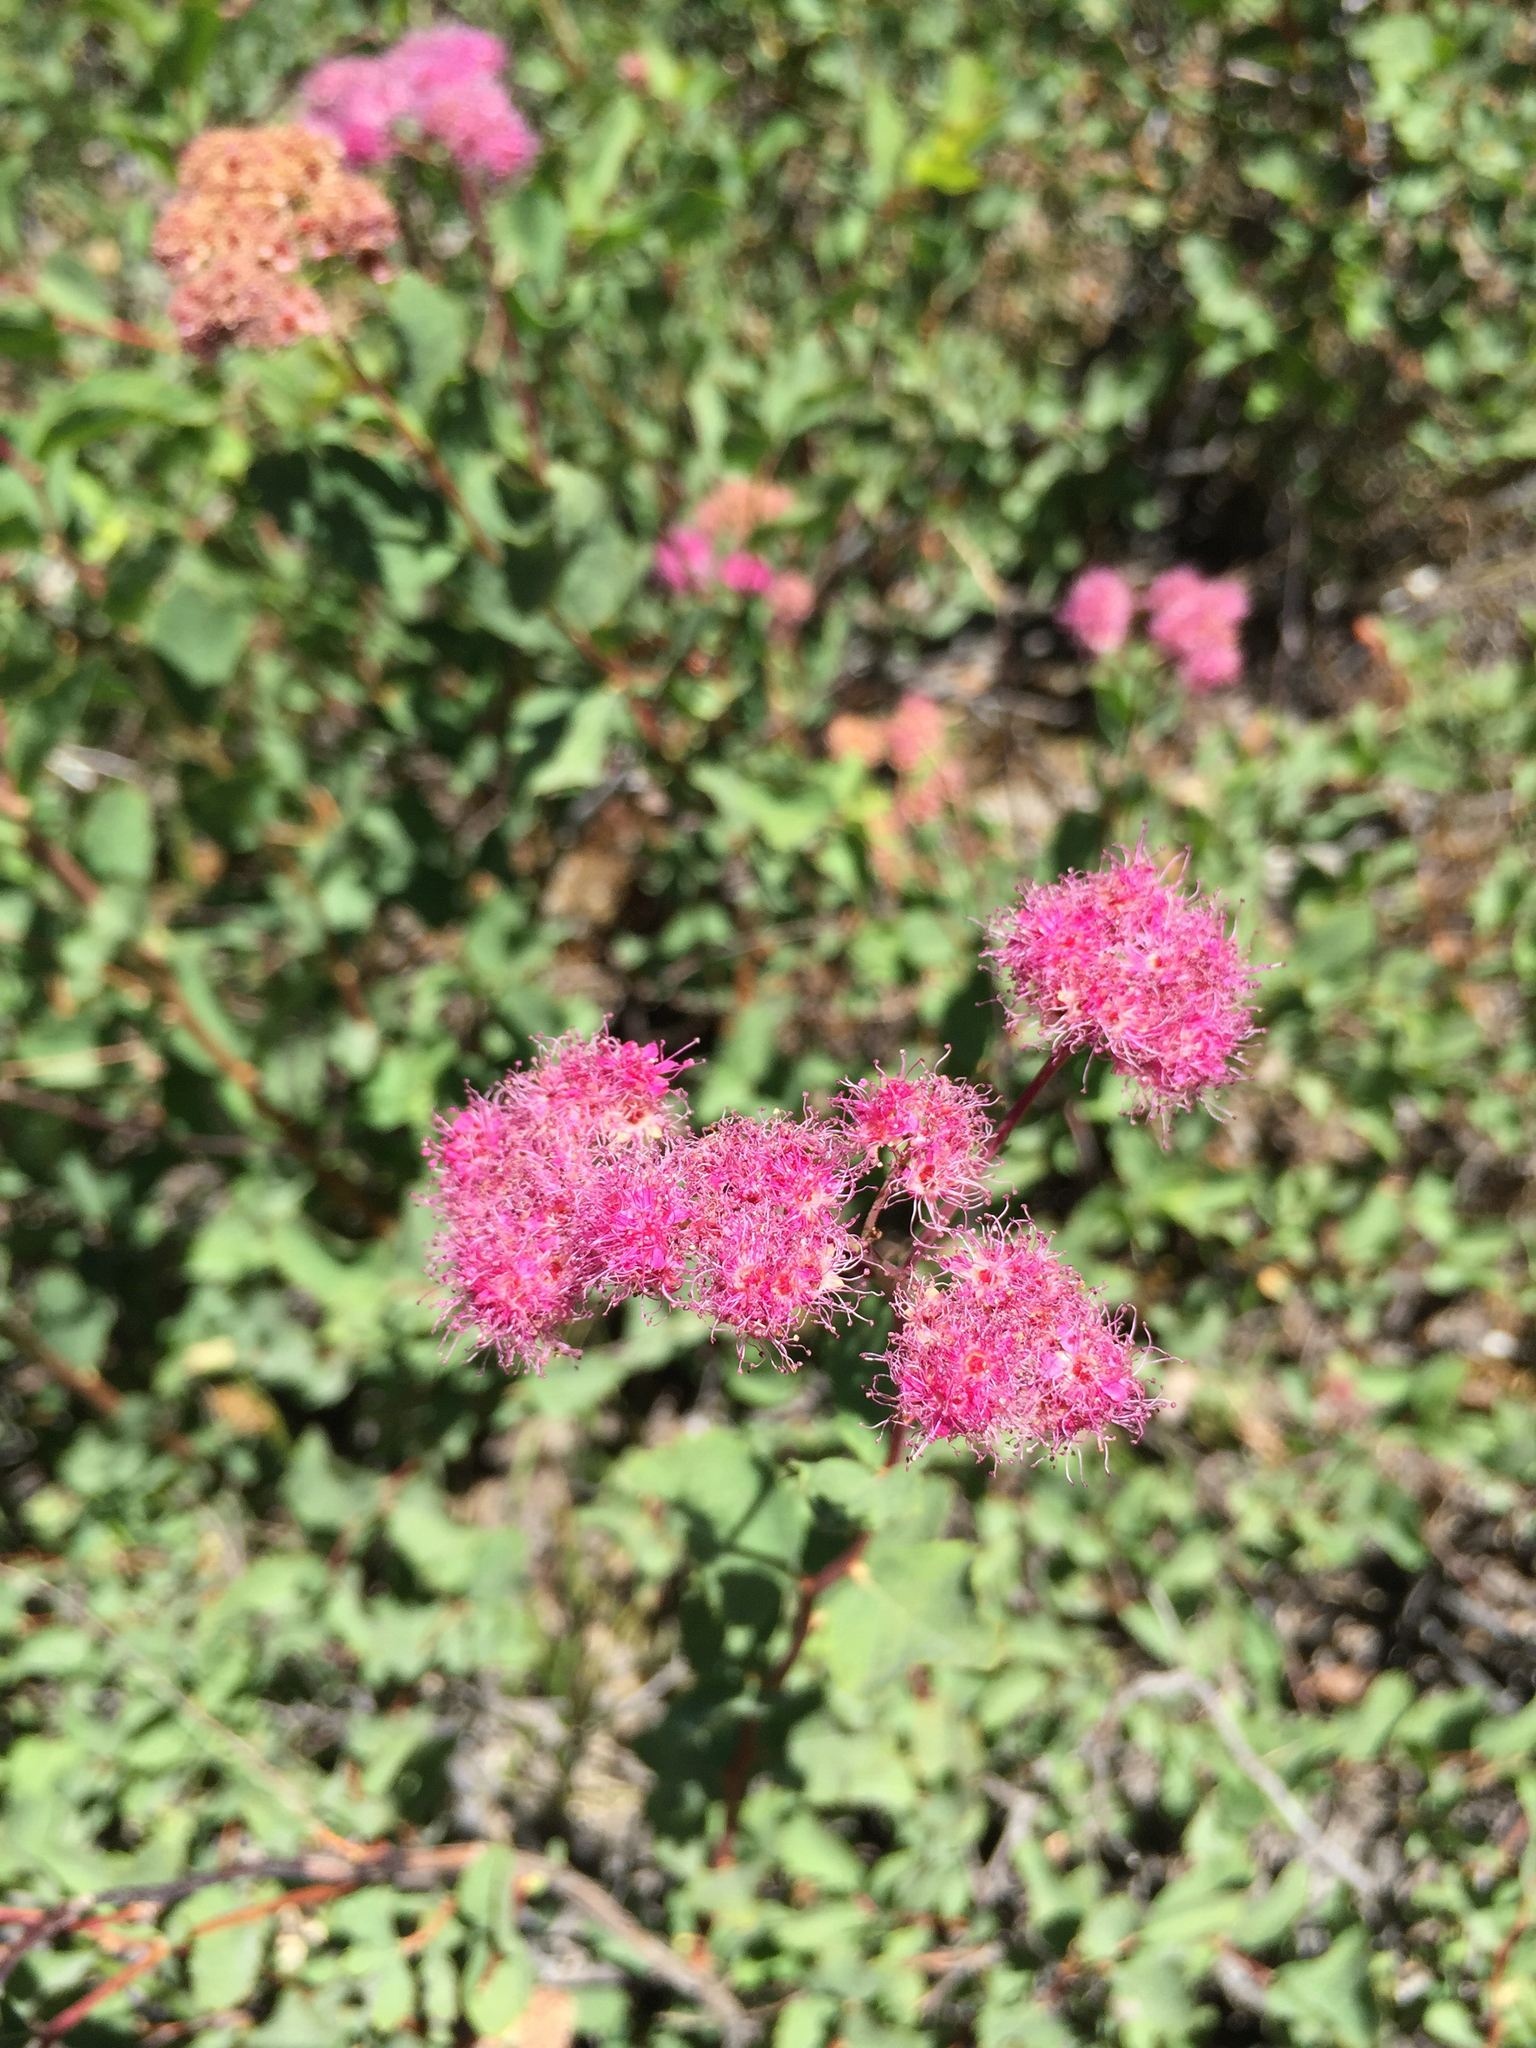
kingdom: Plantae
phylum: Tracheophyta
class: Magnoliopsida
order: Rosales
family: Rosaceae
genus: Spiraea
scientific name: Spiraea splendens
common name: Subalpine meadowsweet
